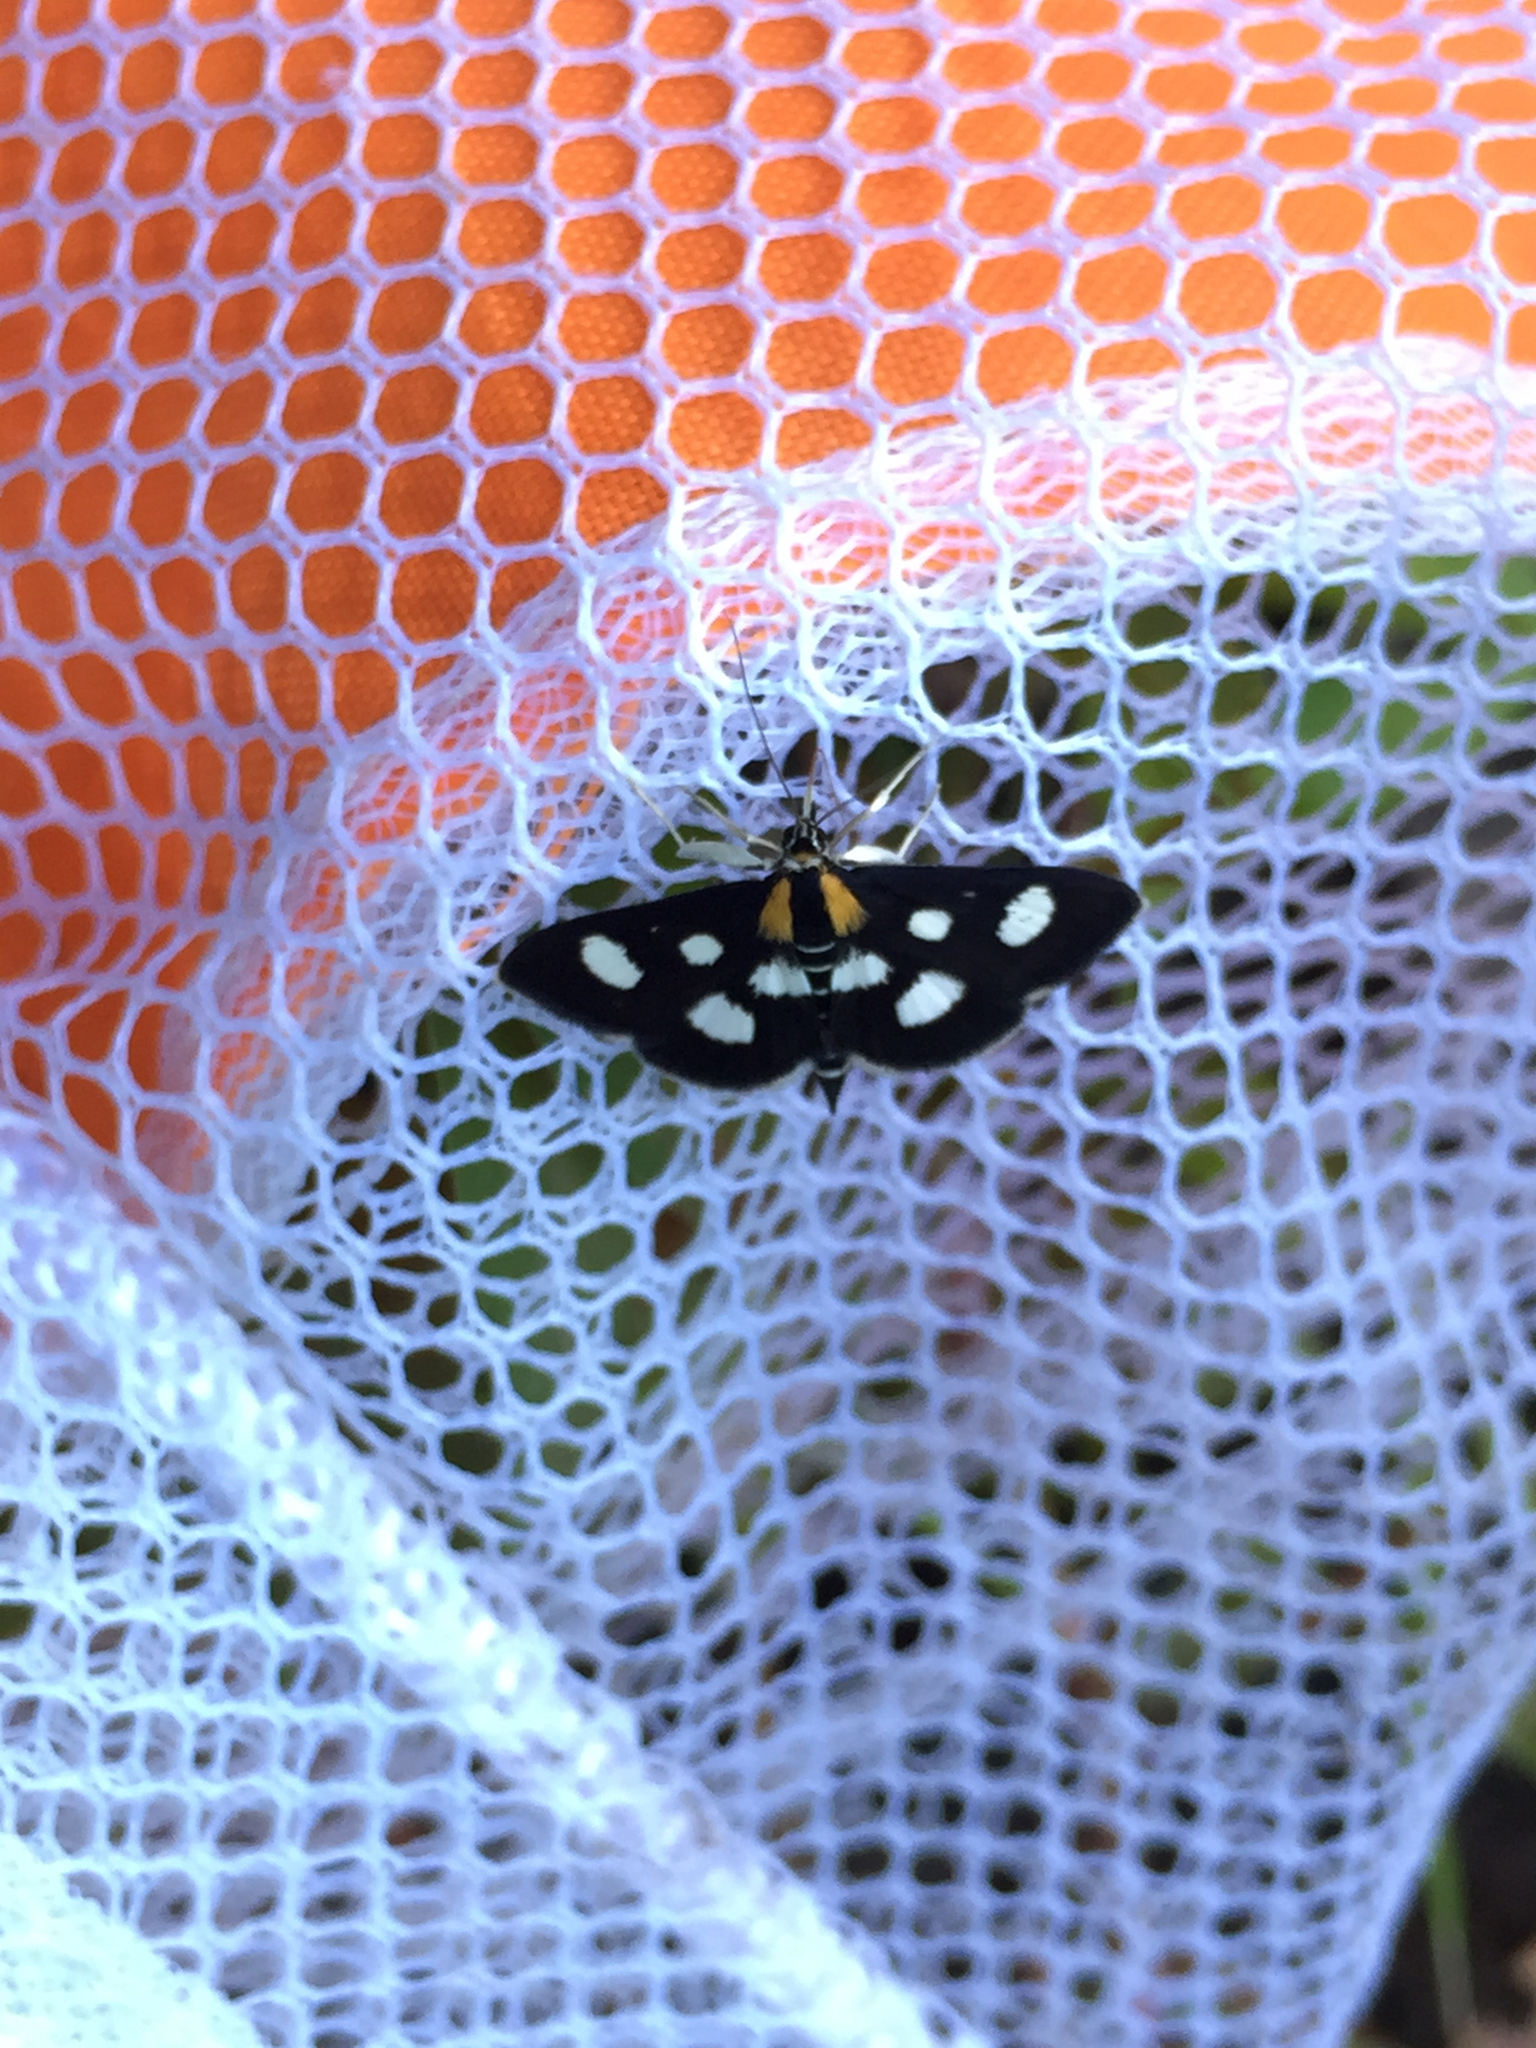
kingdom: Animalia
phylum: Arthropoda
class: Insecta
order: Lepidoptera
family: Noctuidae
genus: Alypia
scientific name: Alypia octomaculata
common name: Eight-spotted forester
